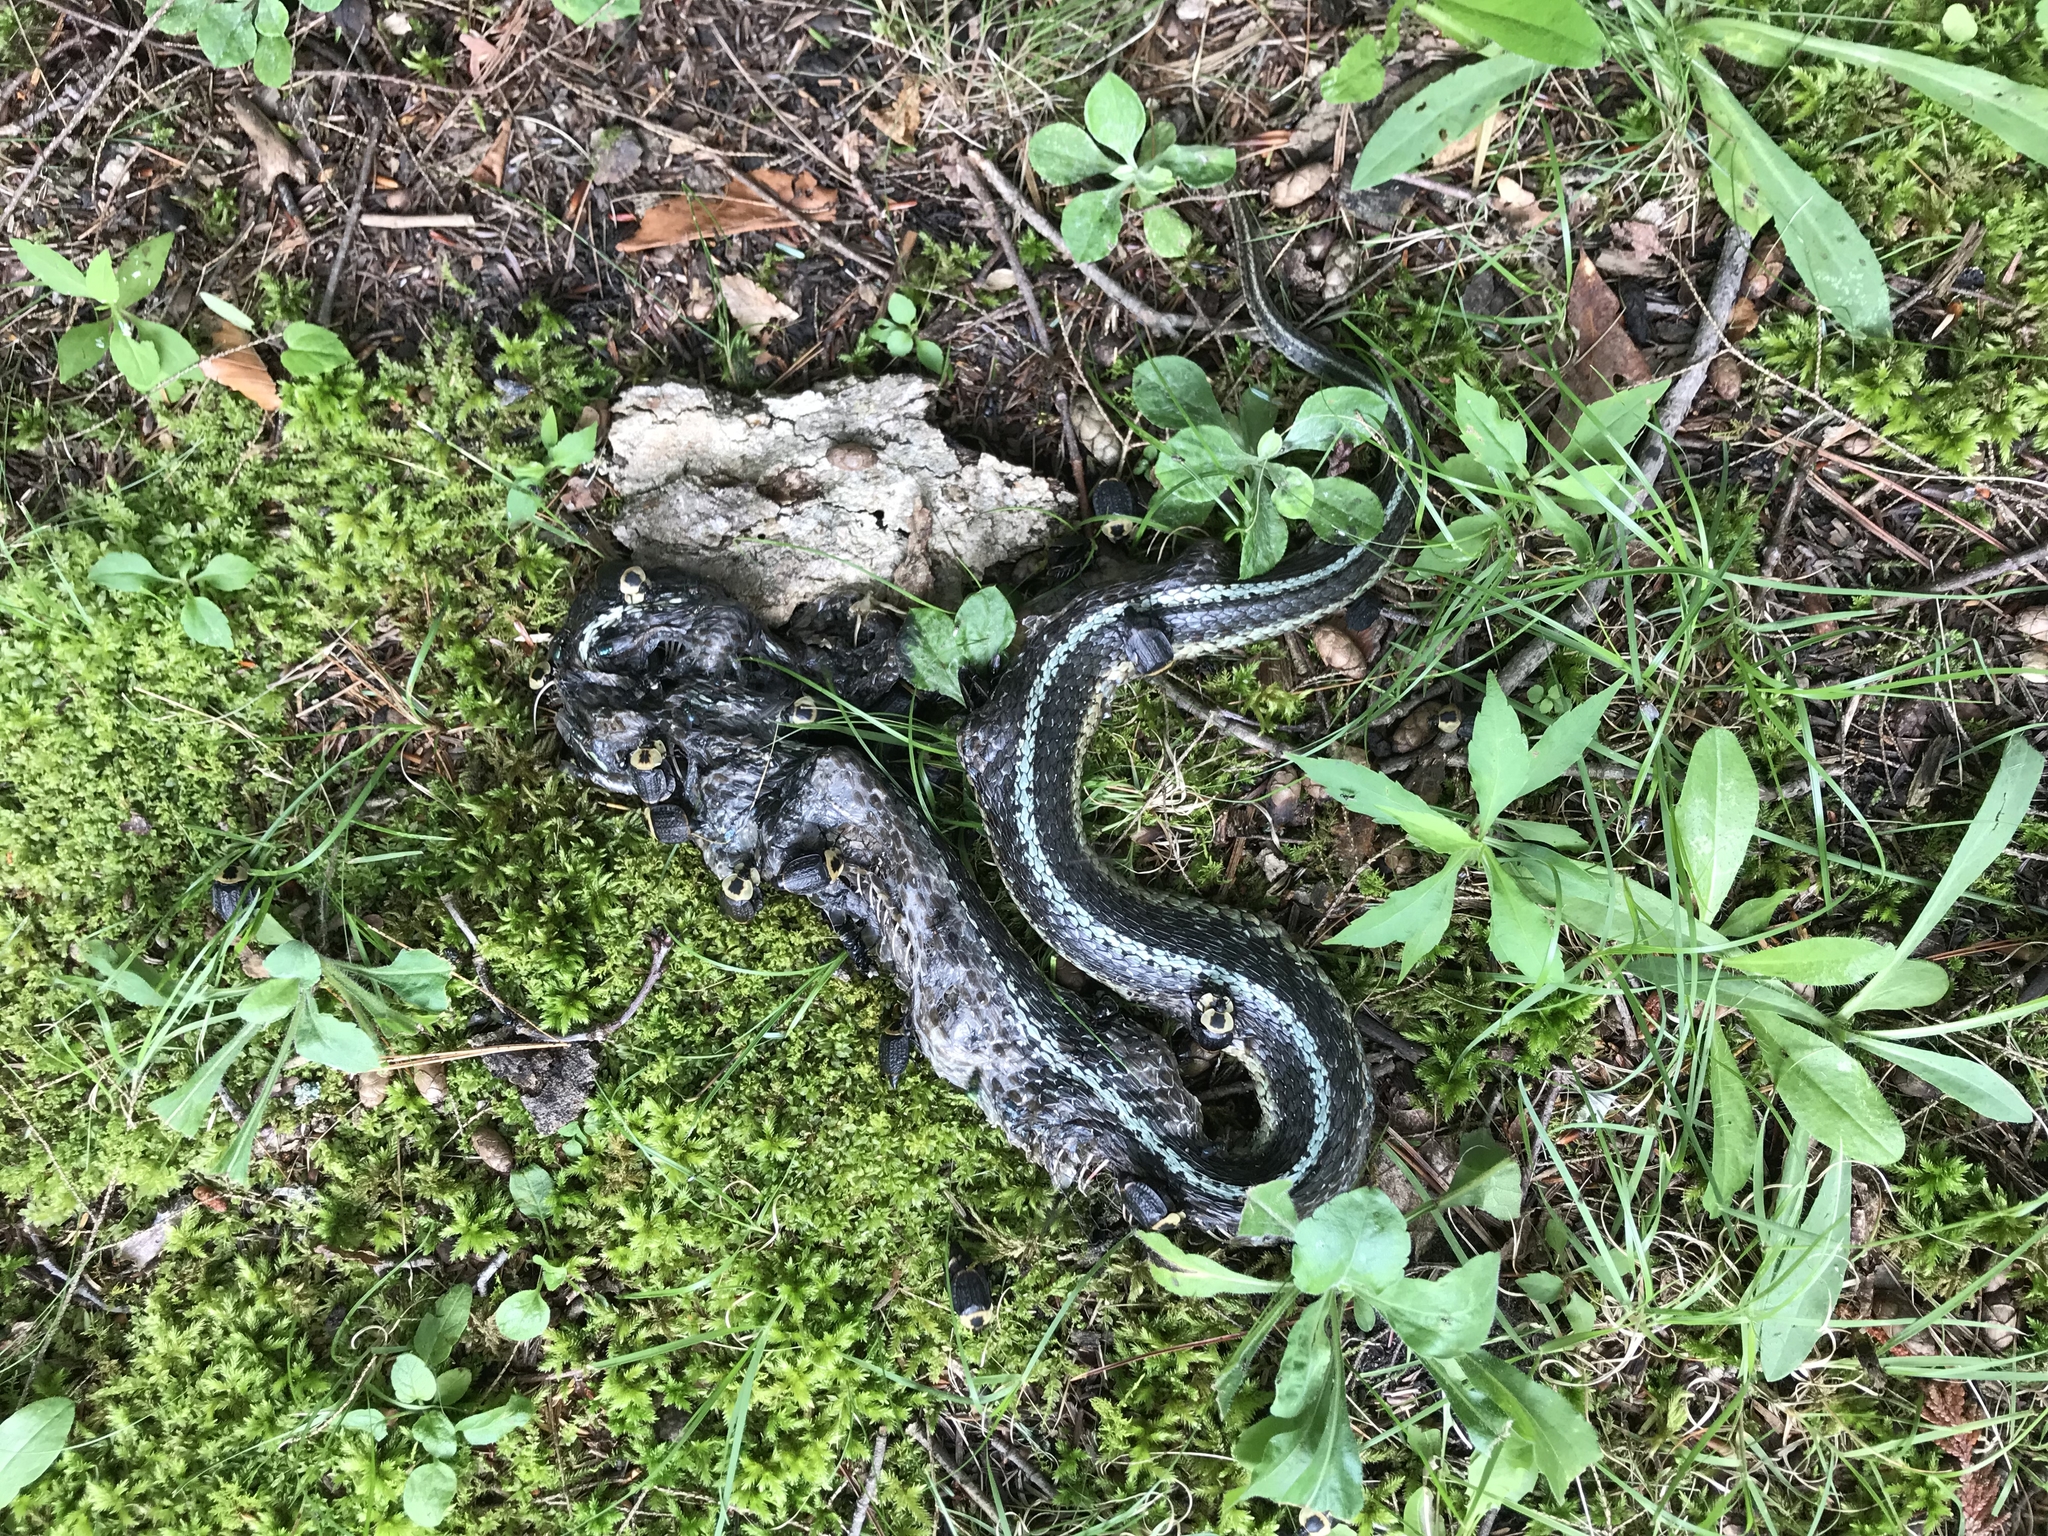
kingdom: Animalia
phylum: Chordata
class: Squamata
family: Colubridae
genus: Thamnophis
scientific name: Thamnophis sirtalis
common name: Common garter snake
